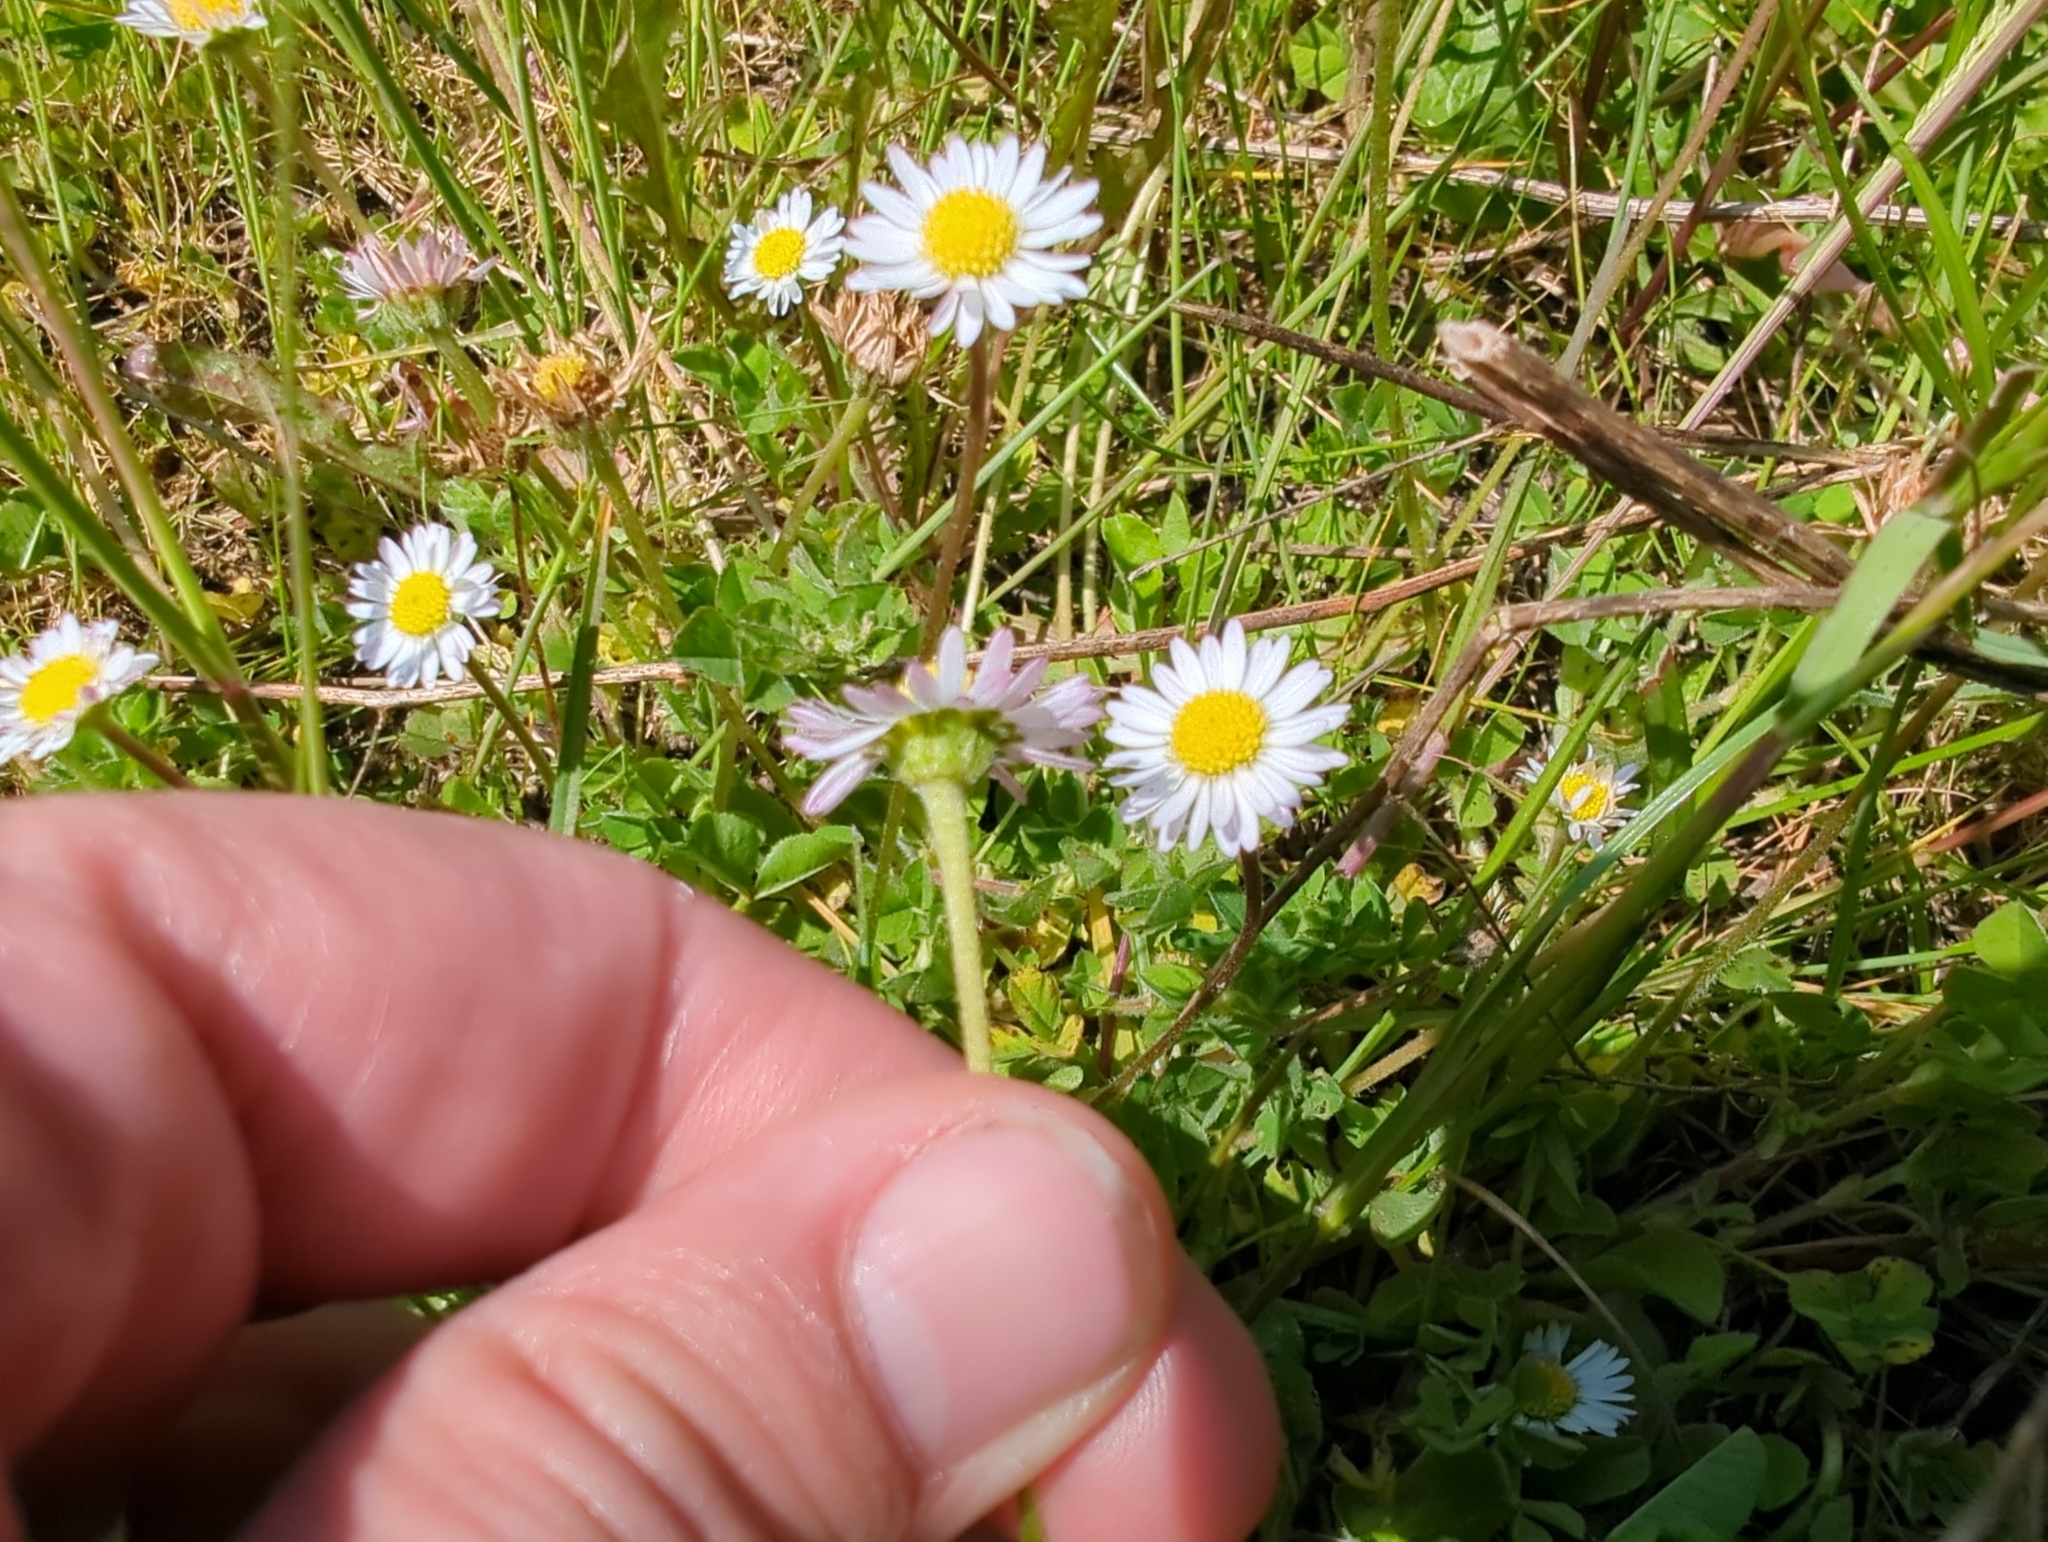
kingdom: Plantae
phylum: Tracheophyta
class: Magnoliopsida
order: Asterales
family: Asteraceae
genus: Bellis
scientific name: Bellis perennis
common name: Lawndaisy
